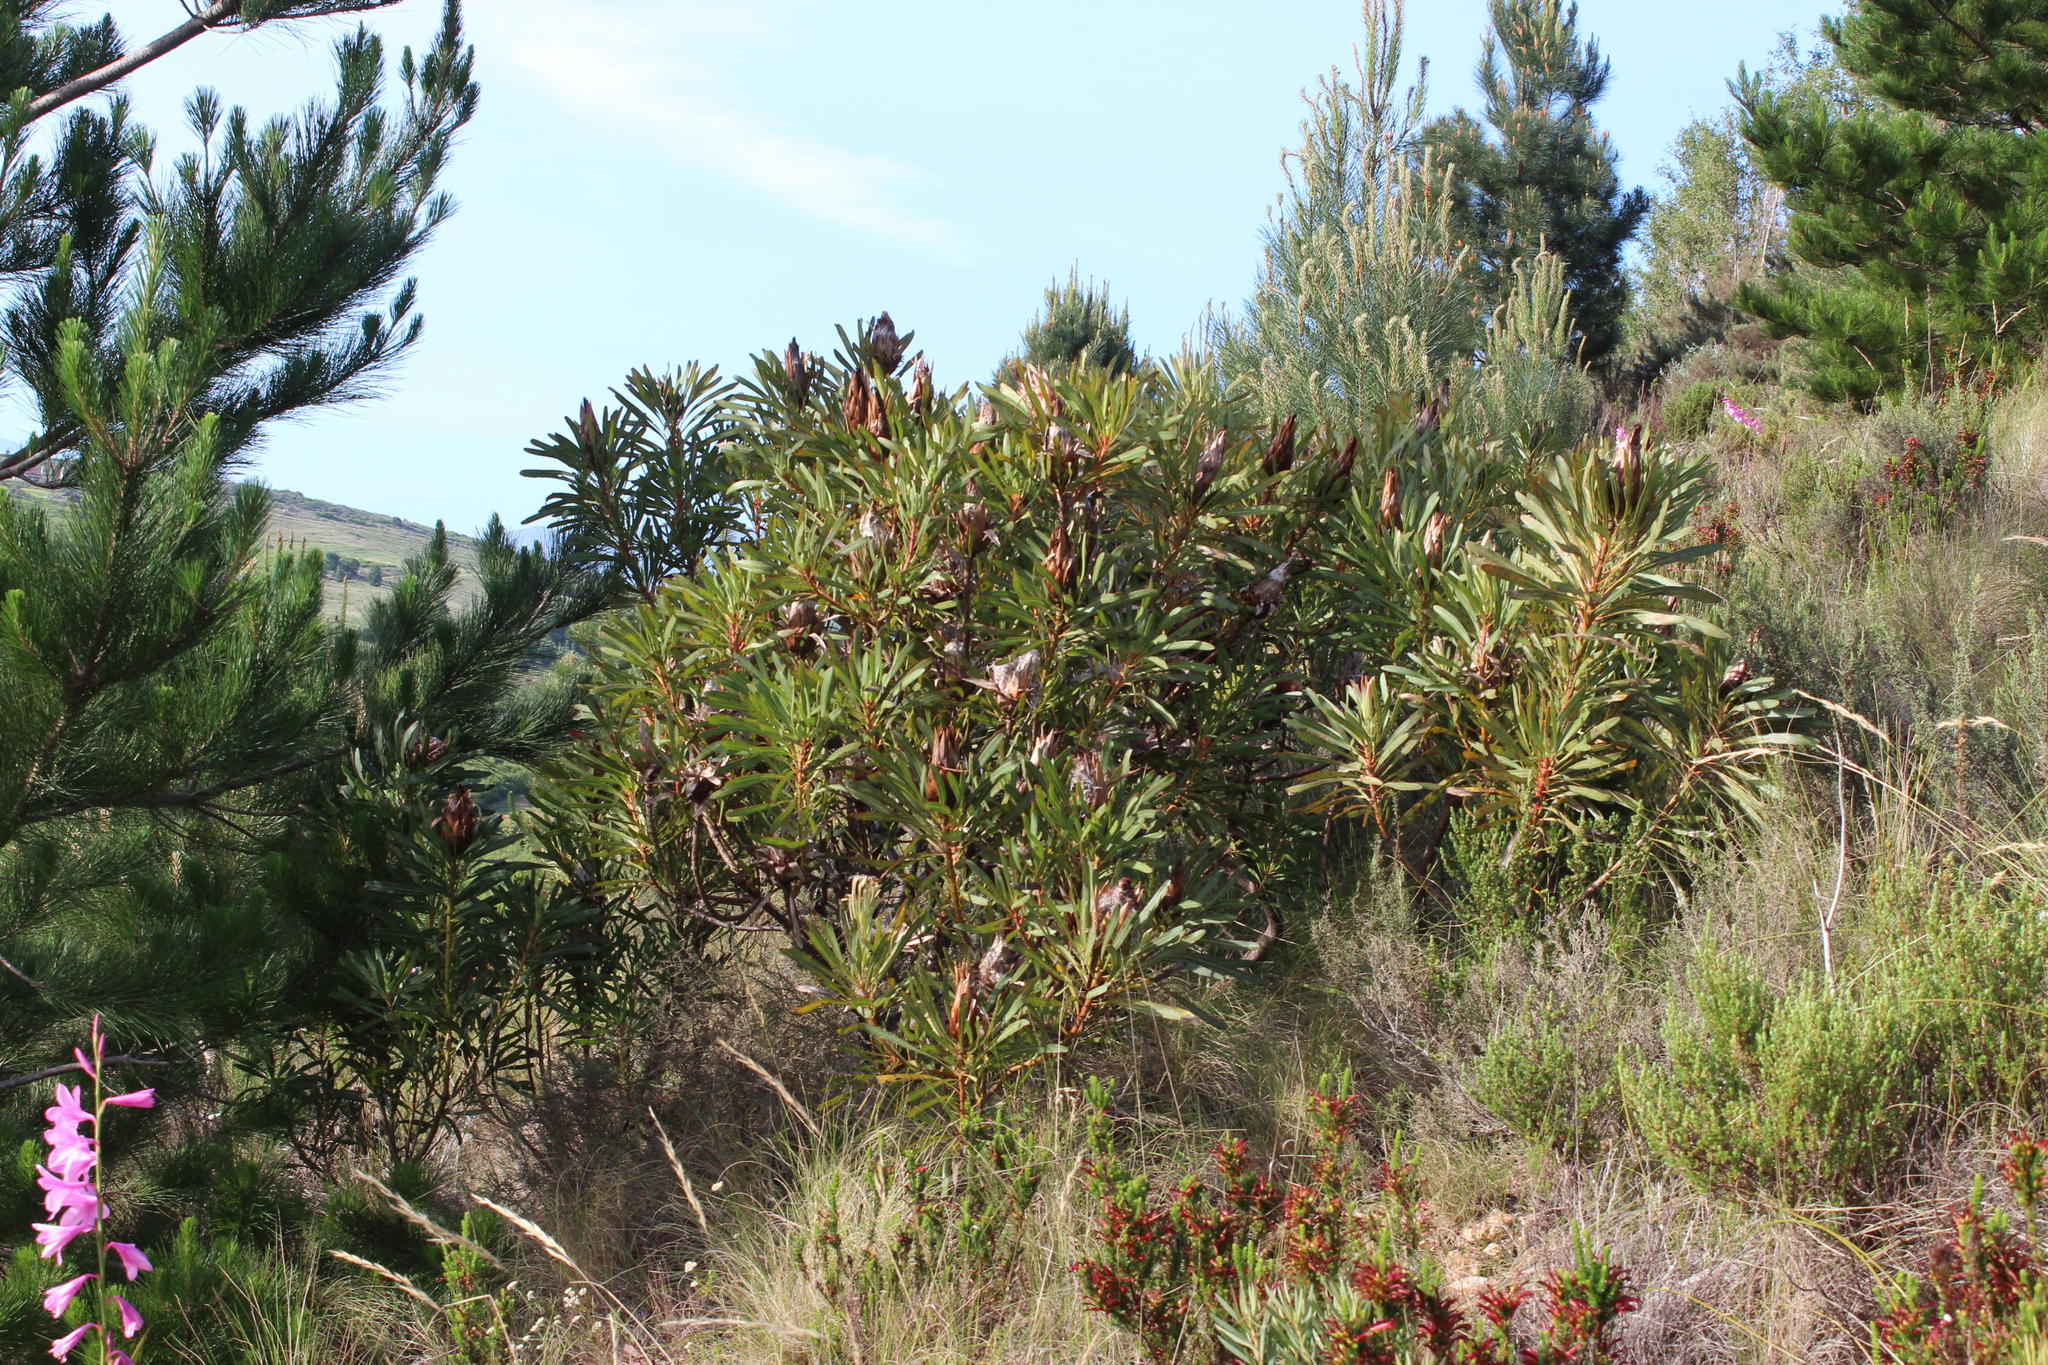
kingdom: Plantae
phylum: Tracheophyta
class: Magnoliopsida
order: Proteales
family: Proteaceae
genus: Protea
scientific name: Protea longifolia
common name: Long-leaf sugarbush
